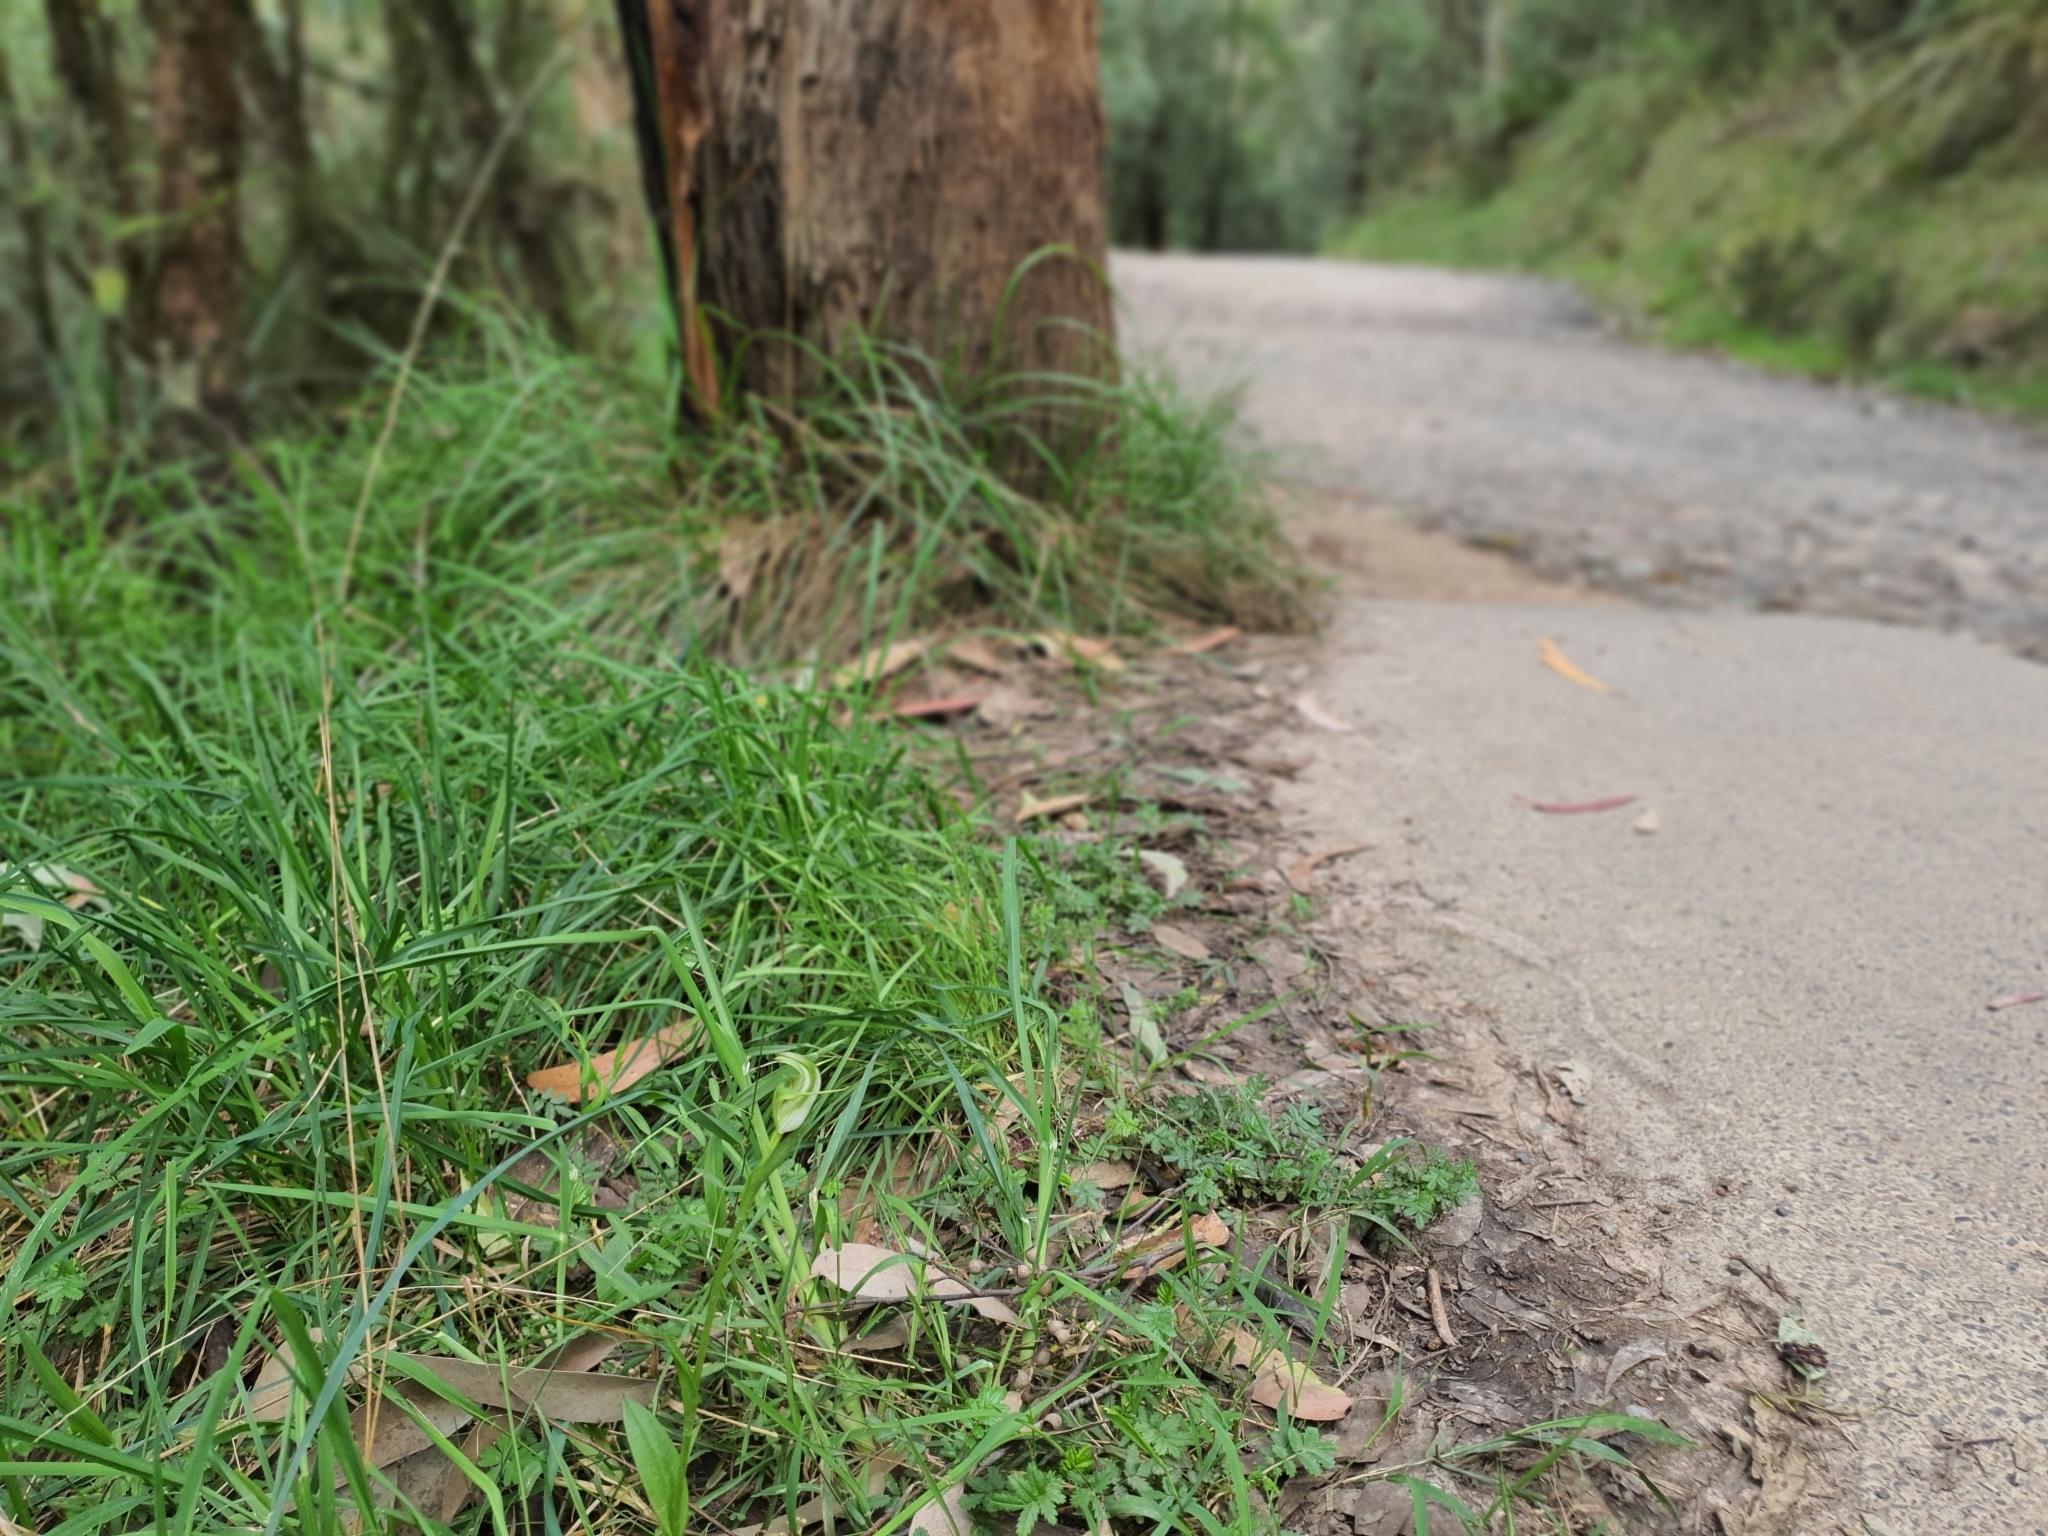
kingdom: Plantae
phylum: Tracheophyta
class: Liliopsida
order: Asparagales
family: Orchidaceae
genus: Pterostylis
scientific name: Pterostylis alpina
